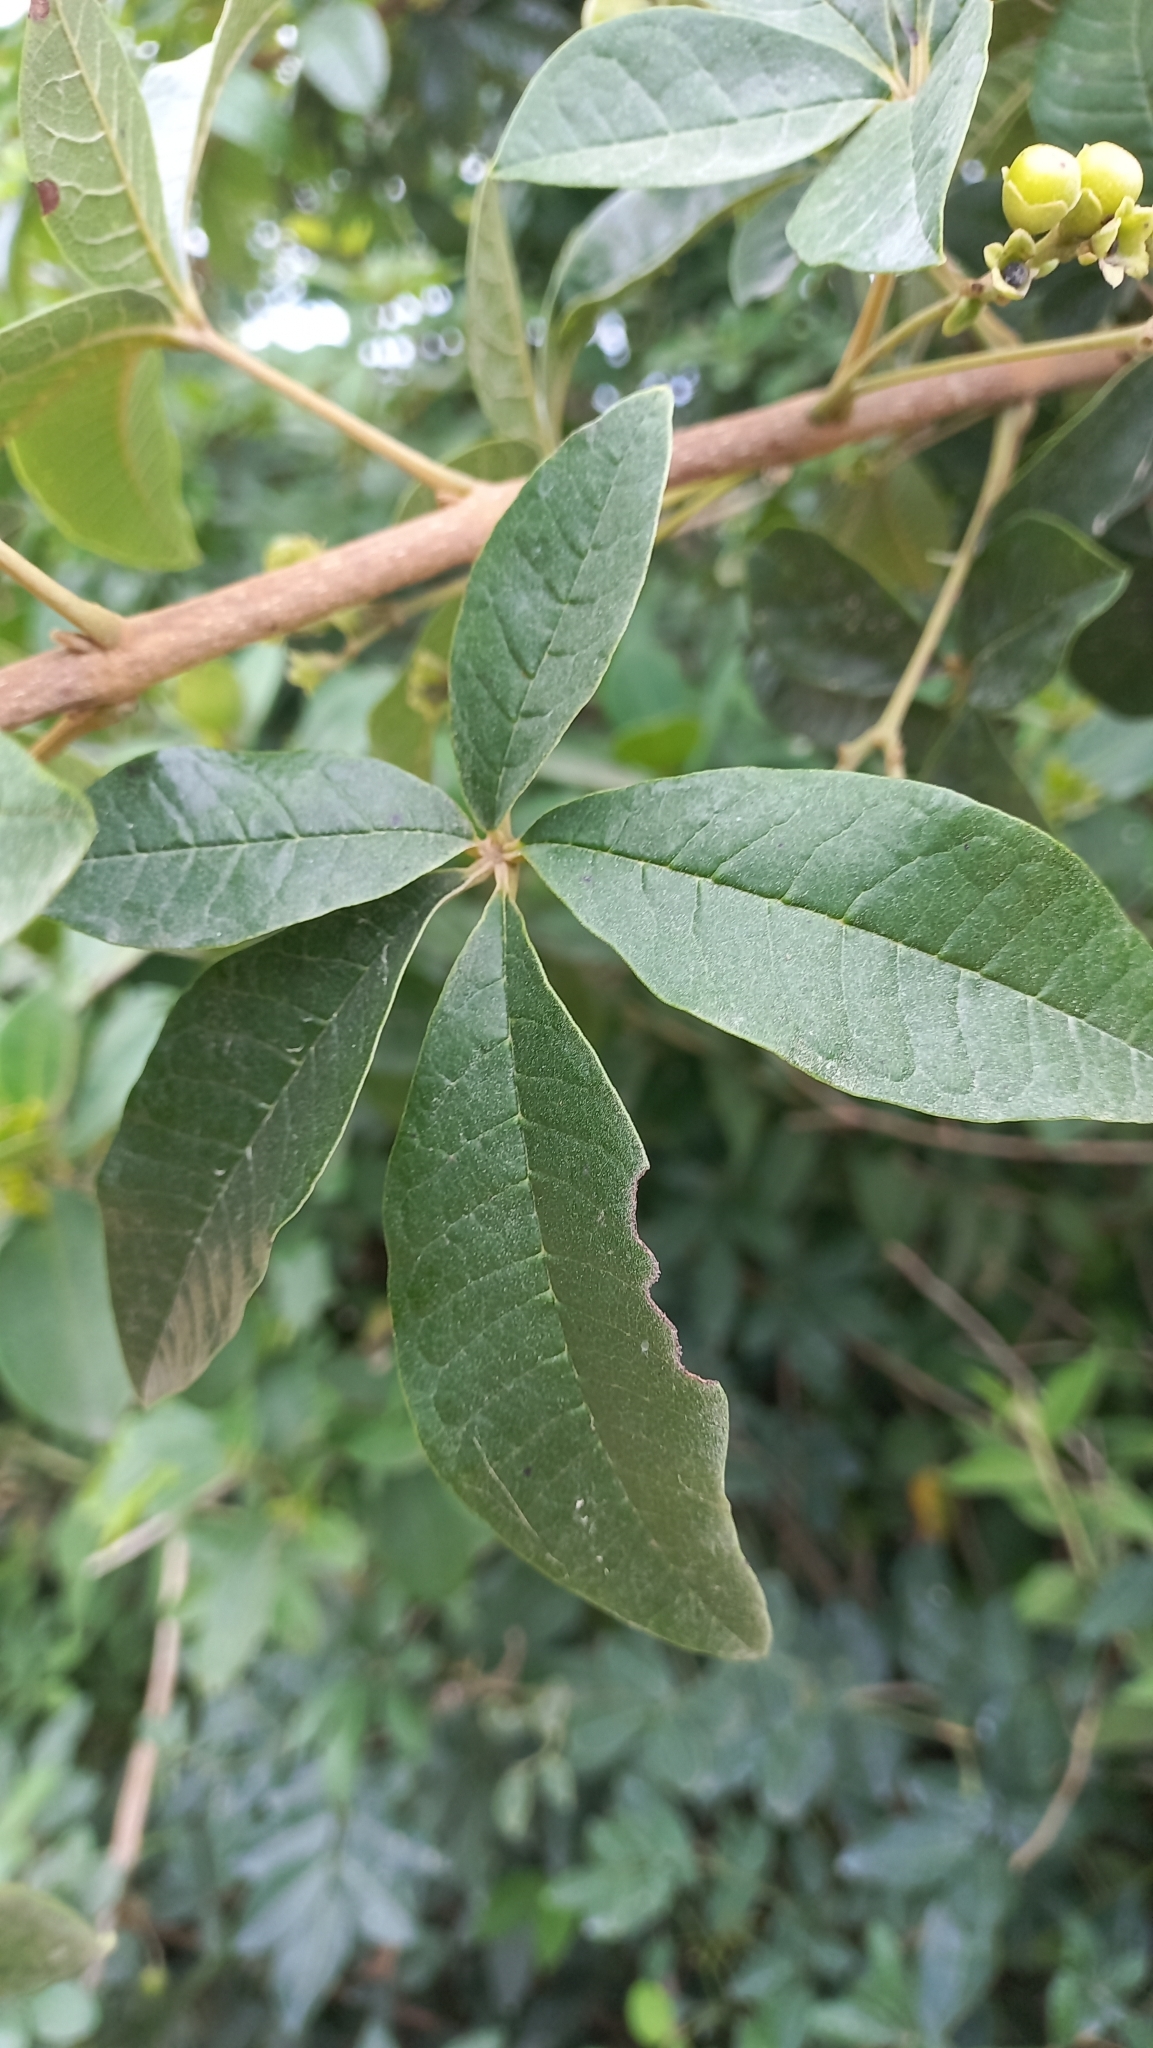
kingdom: Plantae
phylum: Tracheophyta
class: Magnoliopsida
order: Lamiales
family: Lamiaceae
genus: Vitex
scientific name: Vitex megapotamica
